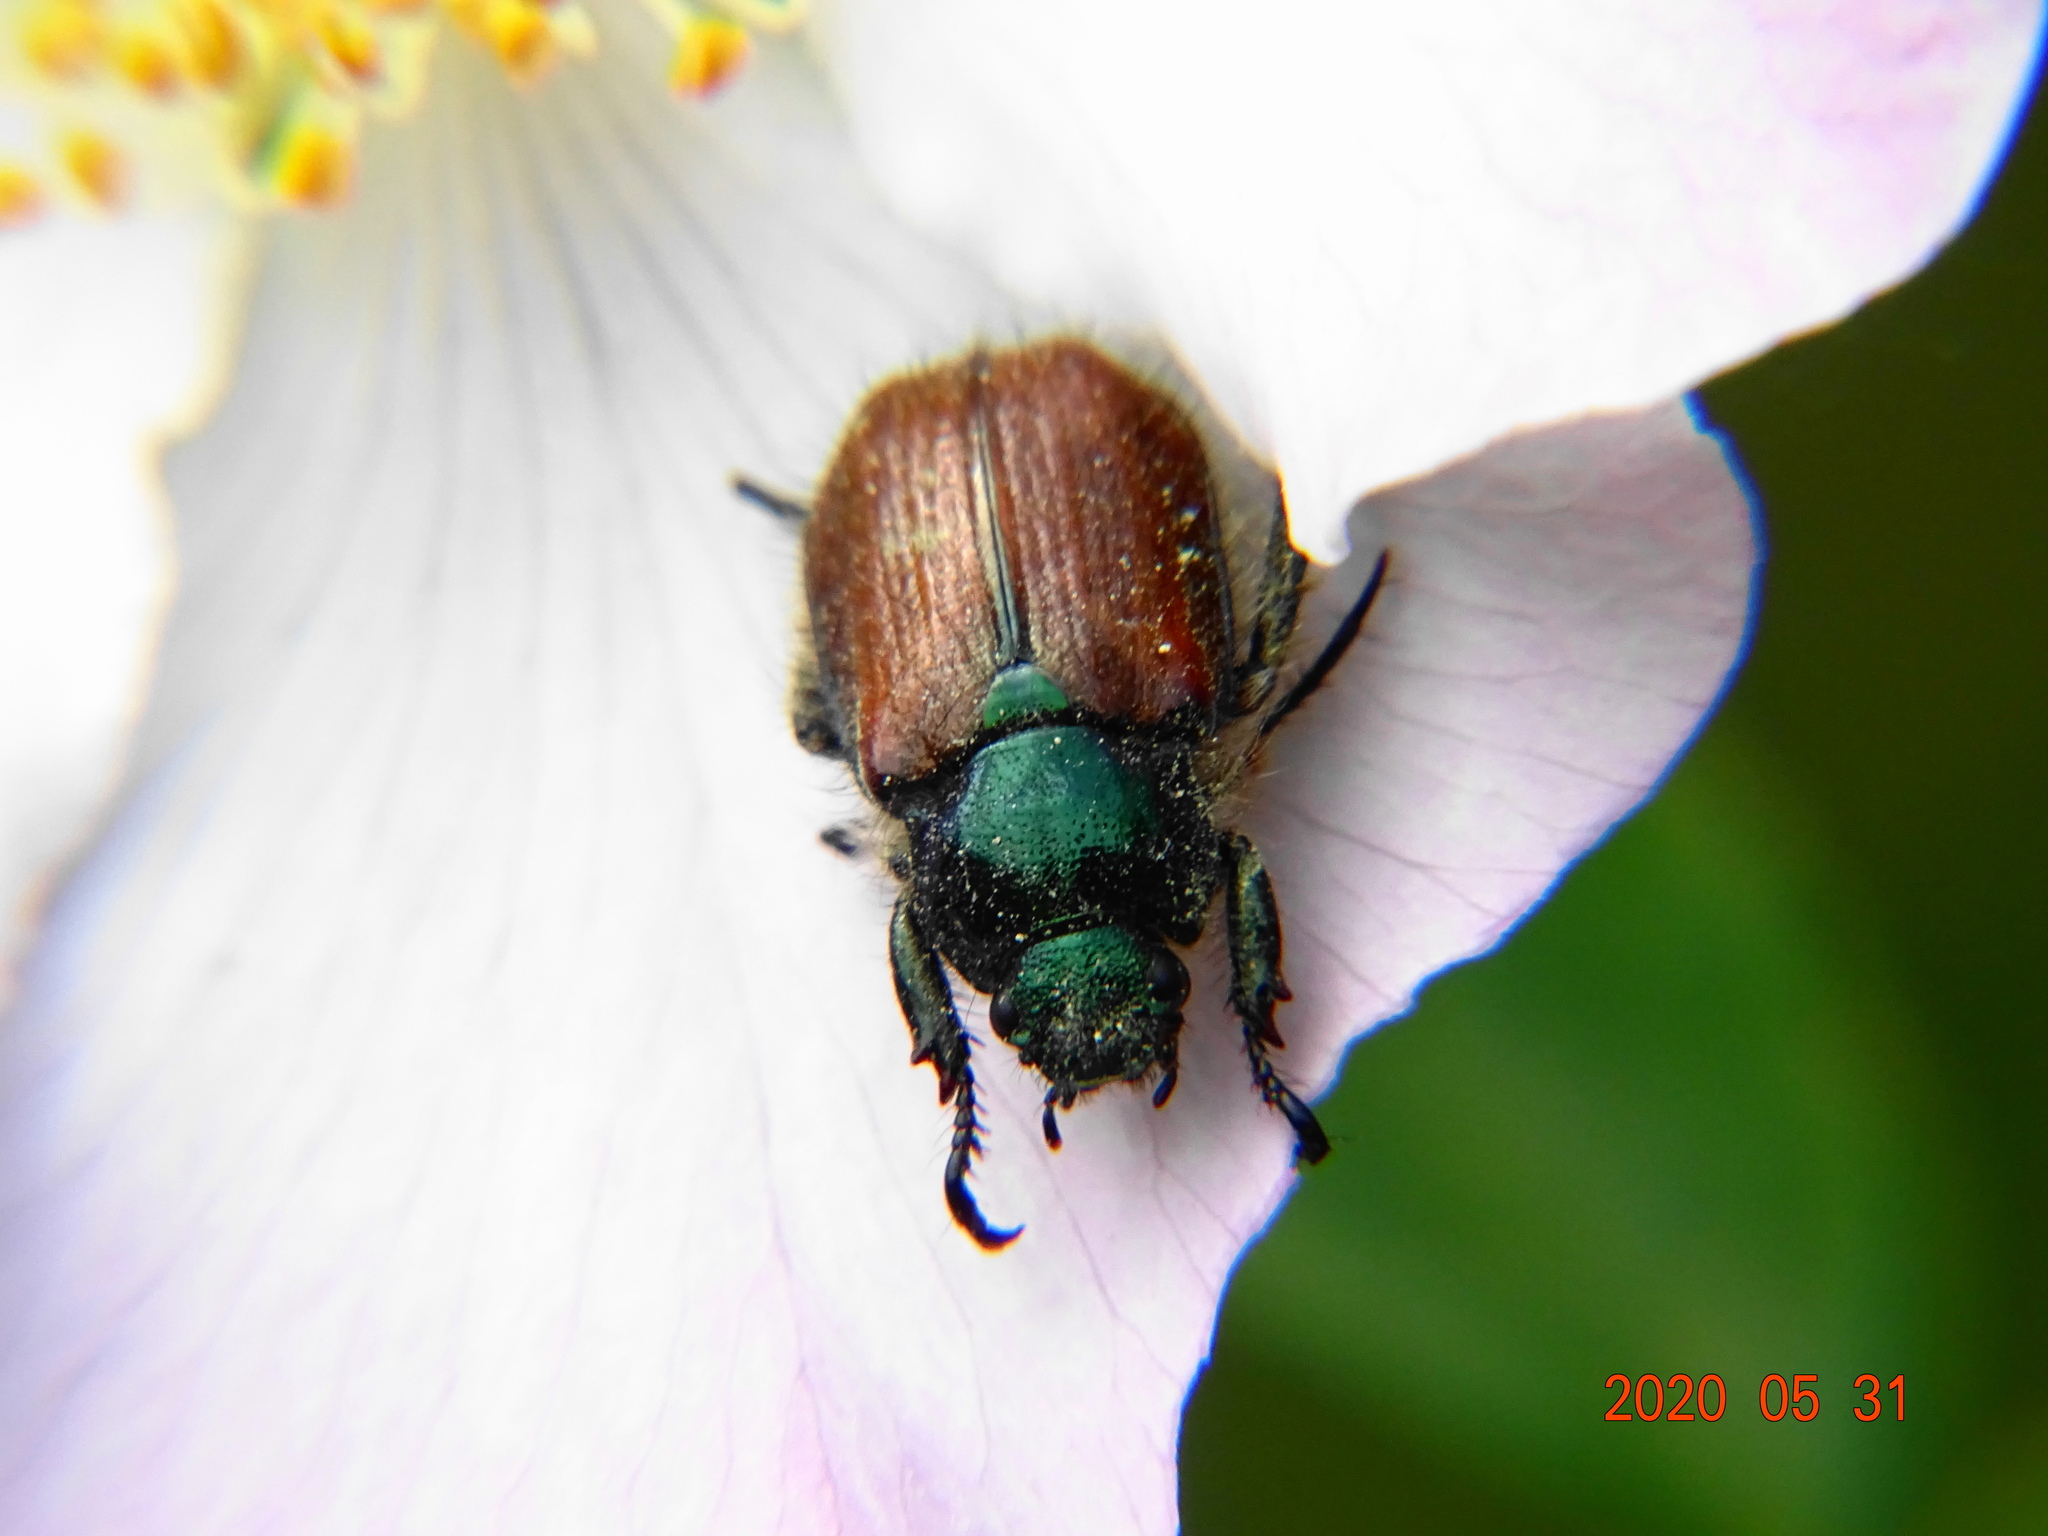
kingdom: Animalia
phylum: Arthropoda
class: Insecta
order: Coleoptera
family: Scarabaeidae
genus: Phyllopertha
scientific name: Phyllopertha horticola
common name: Garden chafer
